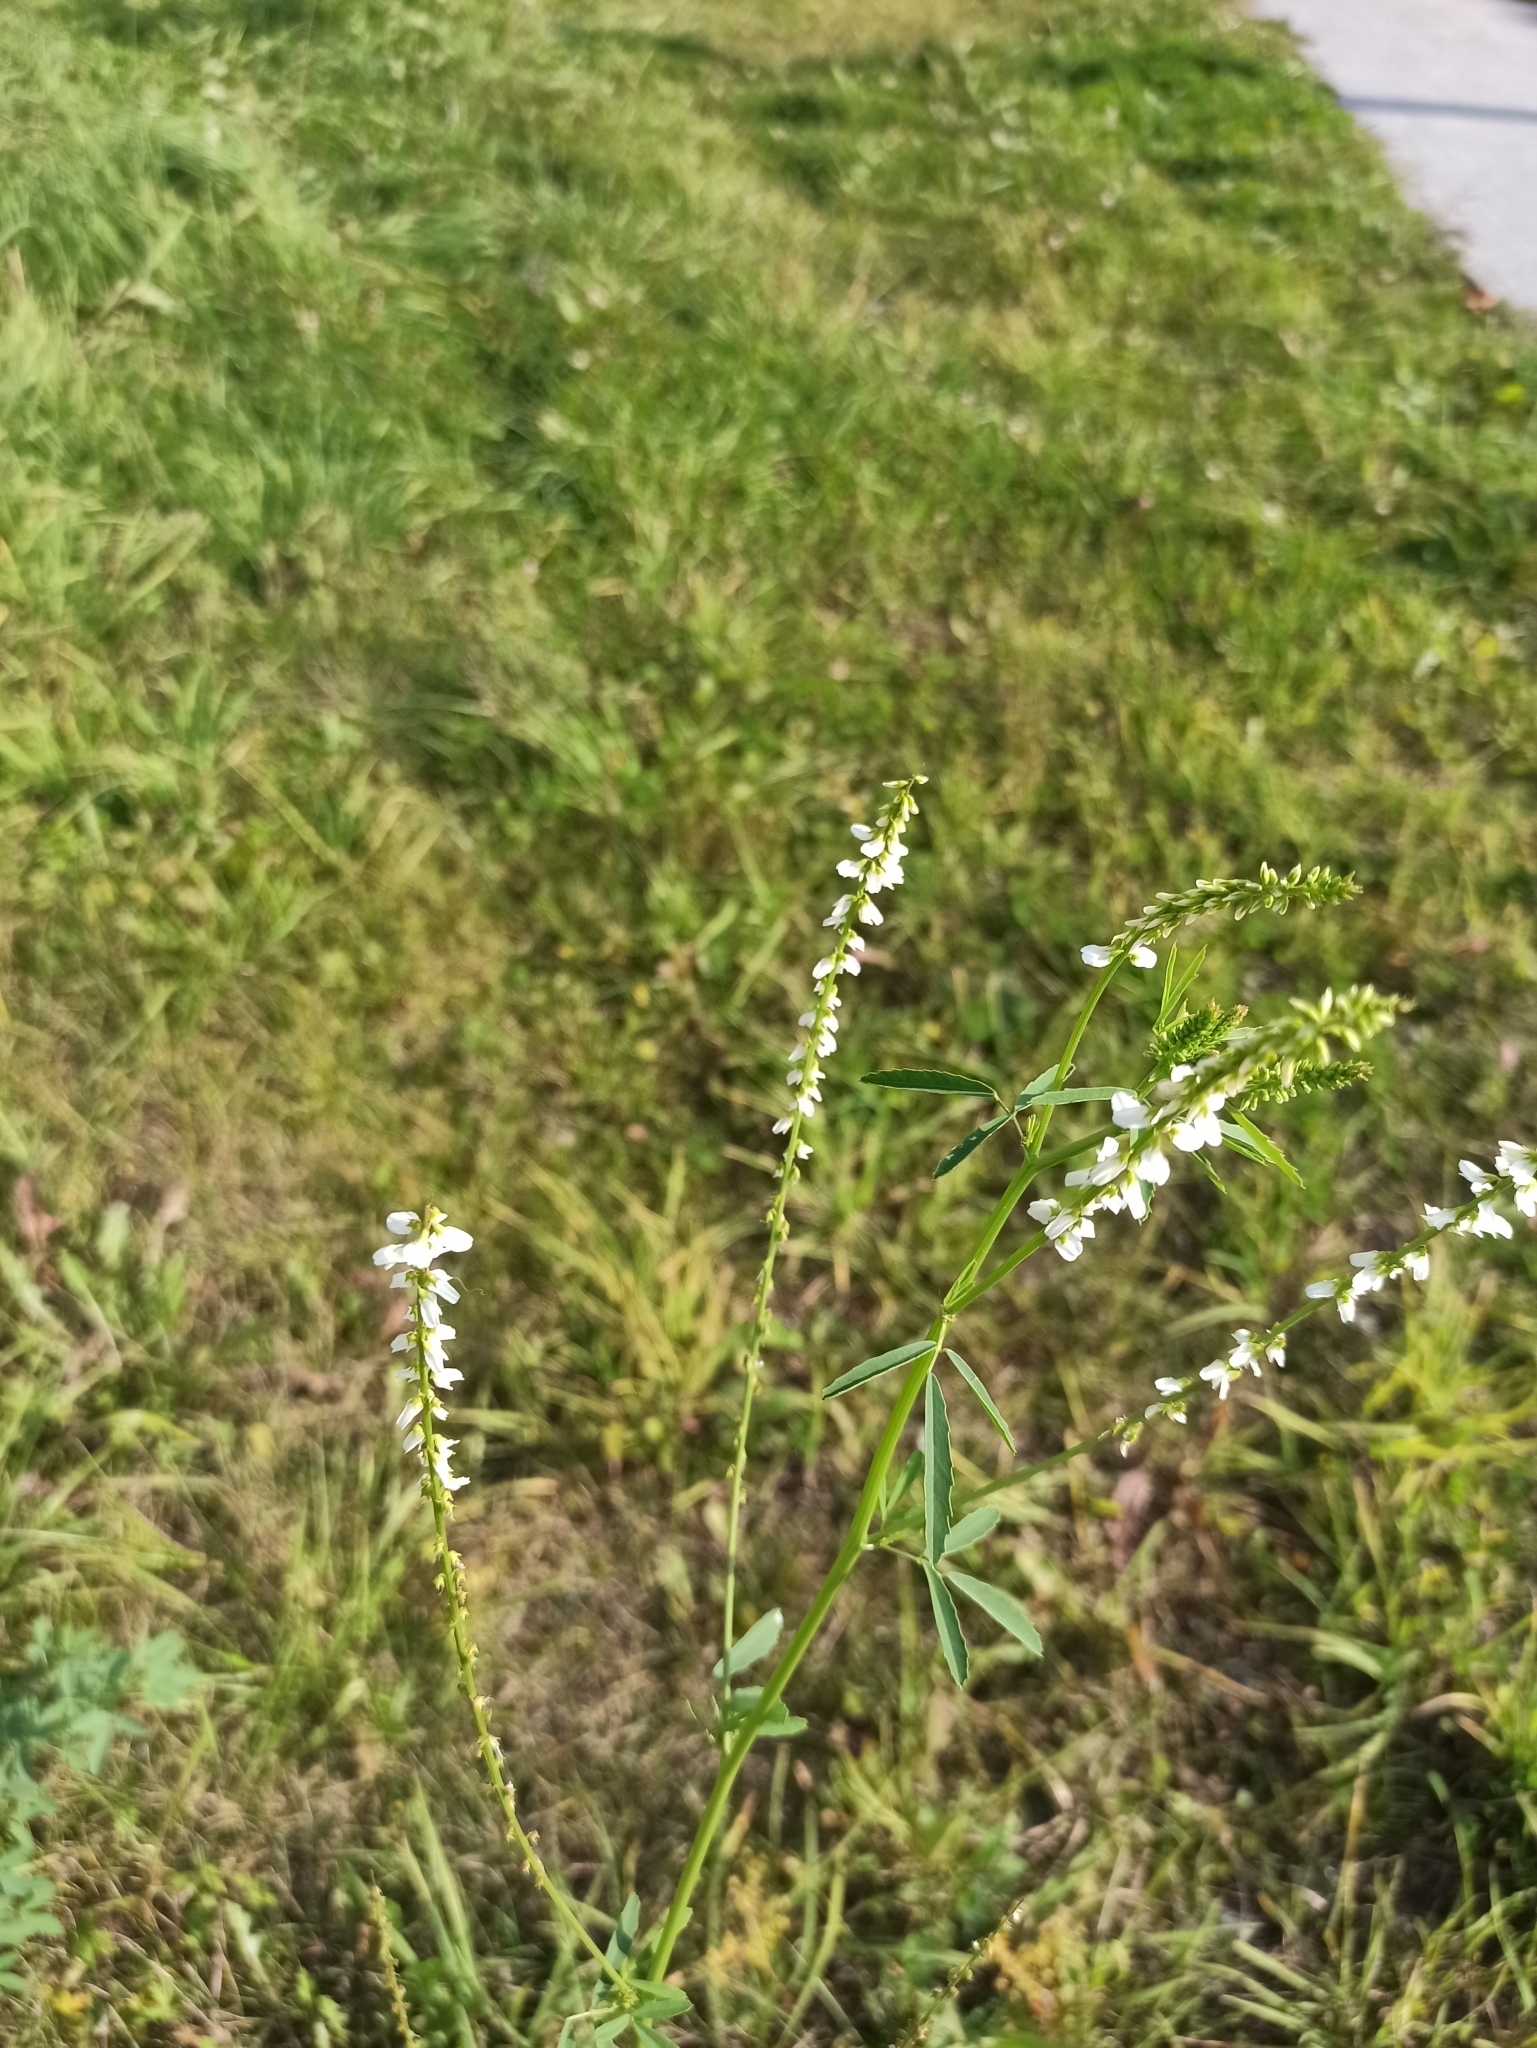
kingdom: Plantae
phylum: Tracheophyta
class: Magnoliopsida
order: Fabales
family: Fabaceae
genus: Melilotus
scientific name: Melilotus albus
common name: White melilot
